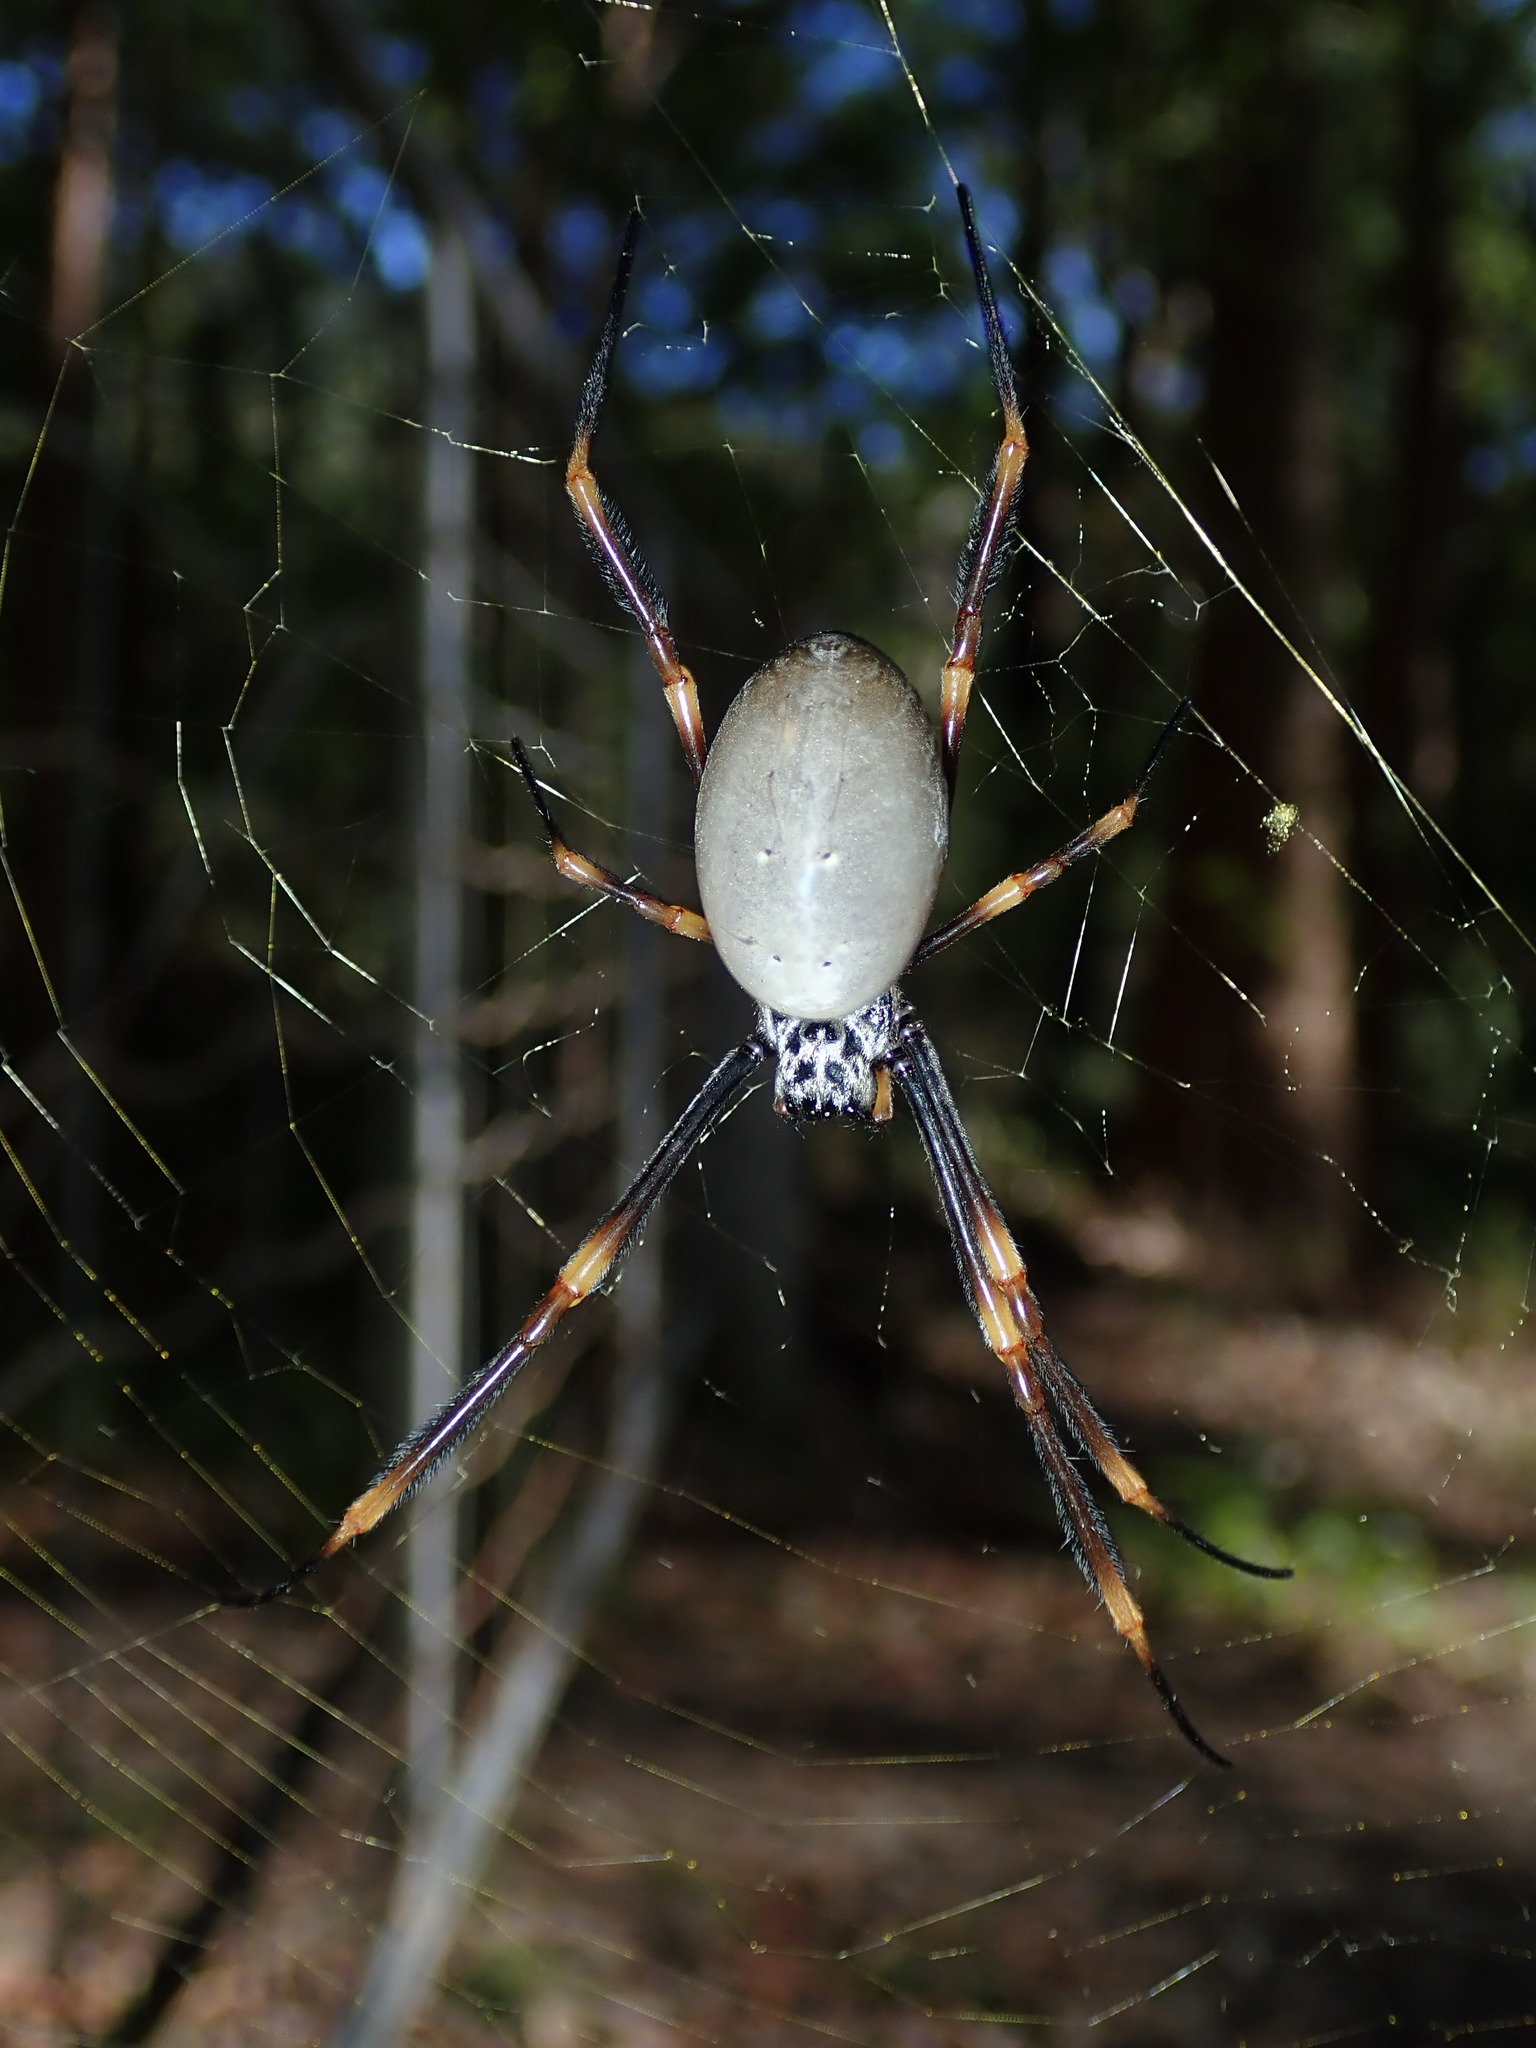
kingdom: Animalia
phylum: Arthropoda
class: Arachnida
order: Araneae
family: Araneidae
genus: Trichonephila
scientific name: Trichonephila plumipes
